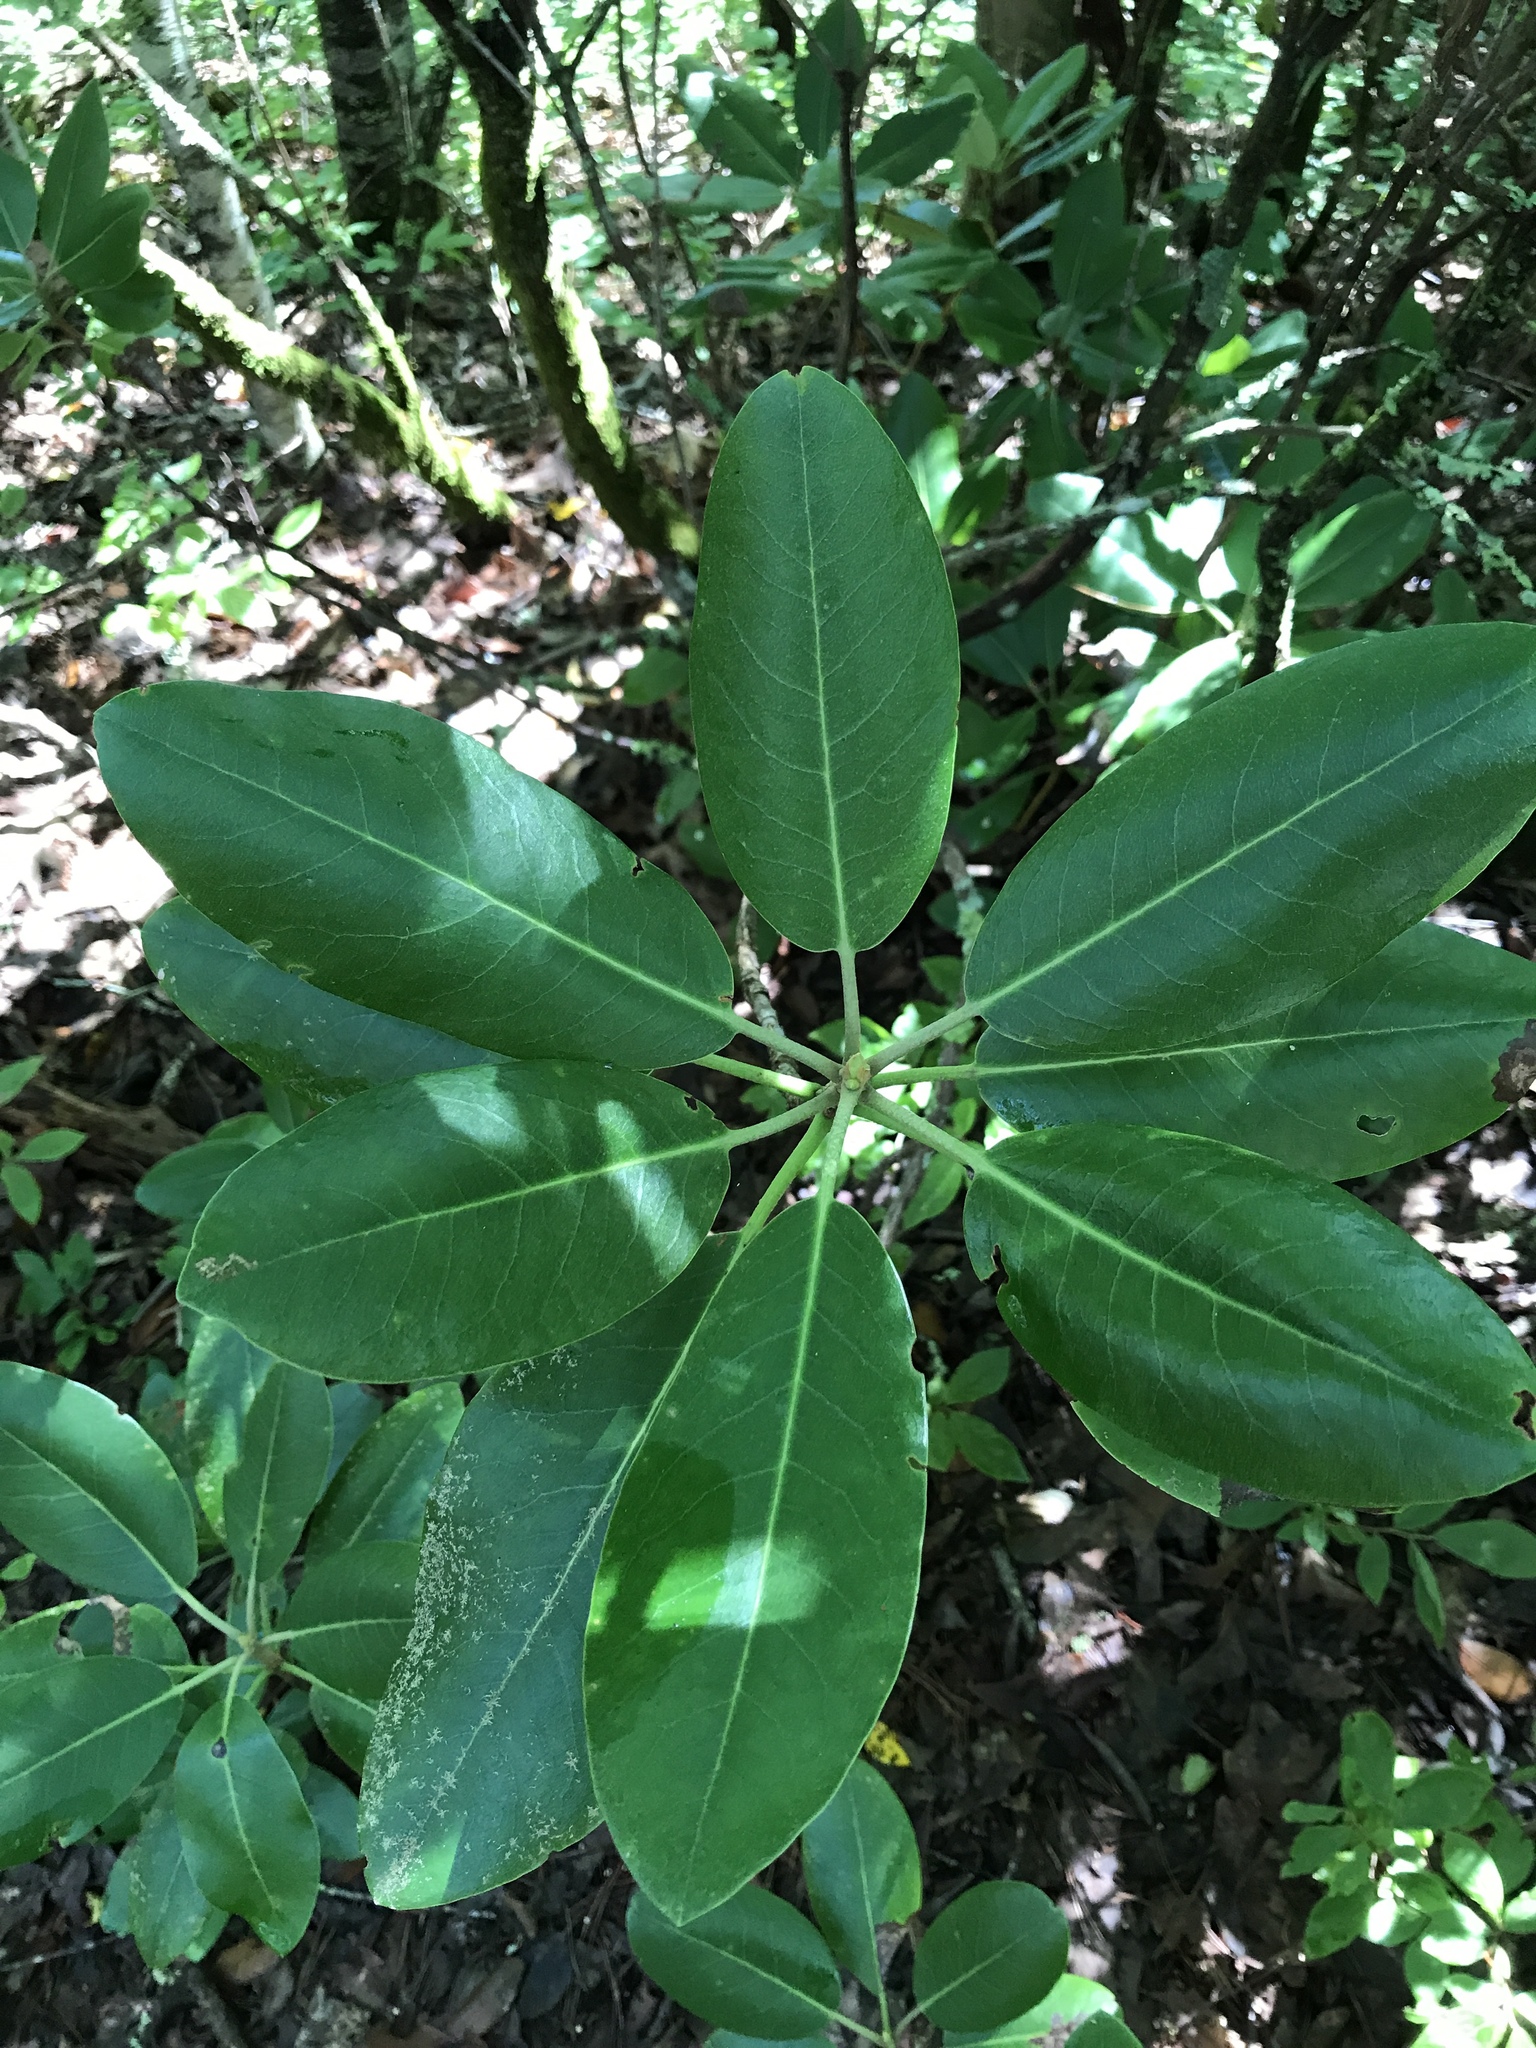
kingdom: Plantae
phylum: Tracheophyta
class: Magnoliopsida
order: Ericales
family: Ericaceae
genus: Rhododendron
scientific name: Rhododendron catawbiense
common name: Catawba rhododendron
